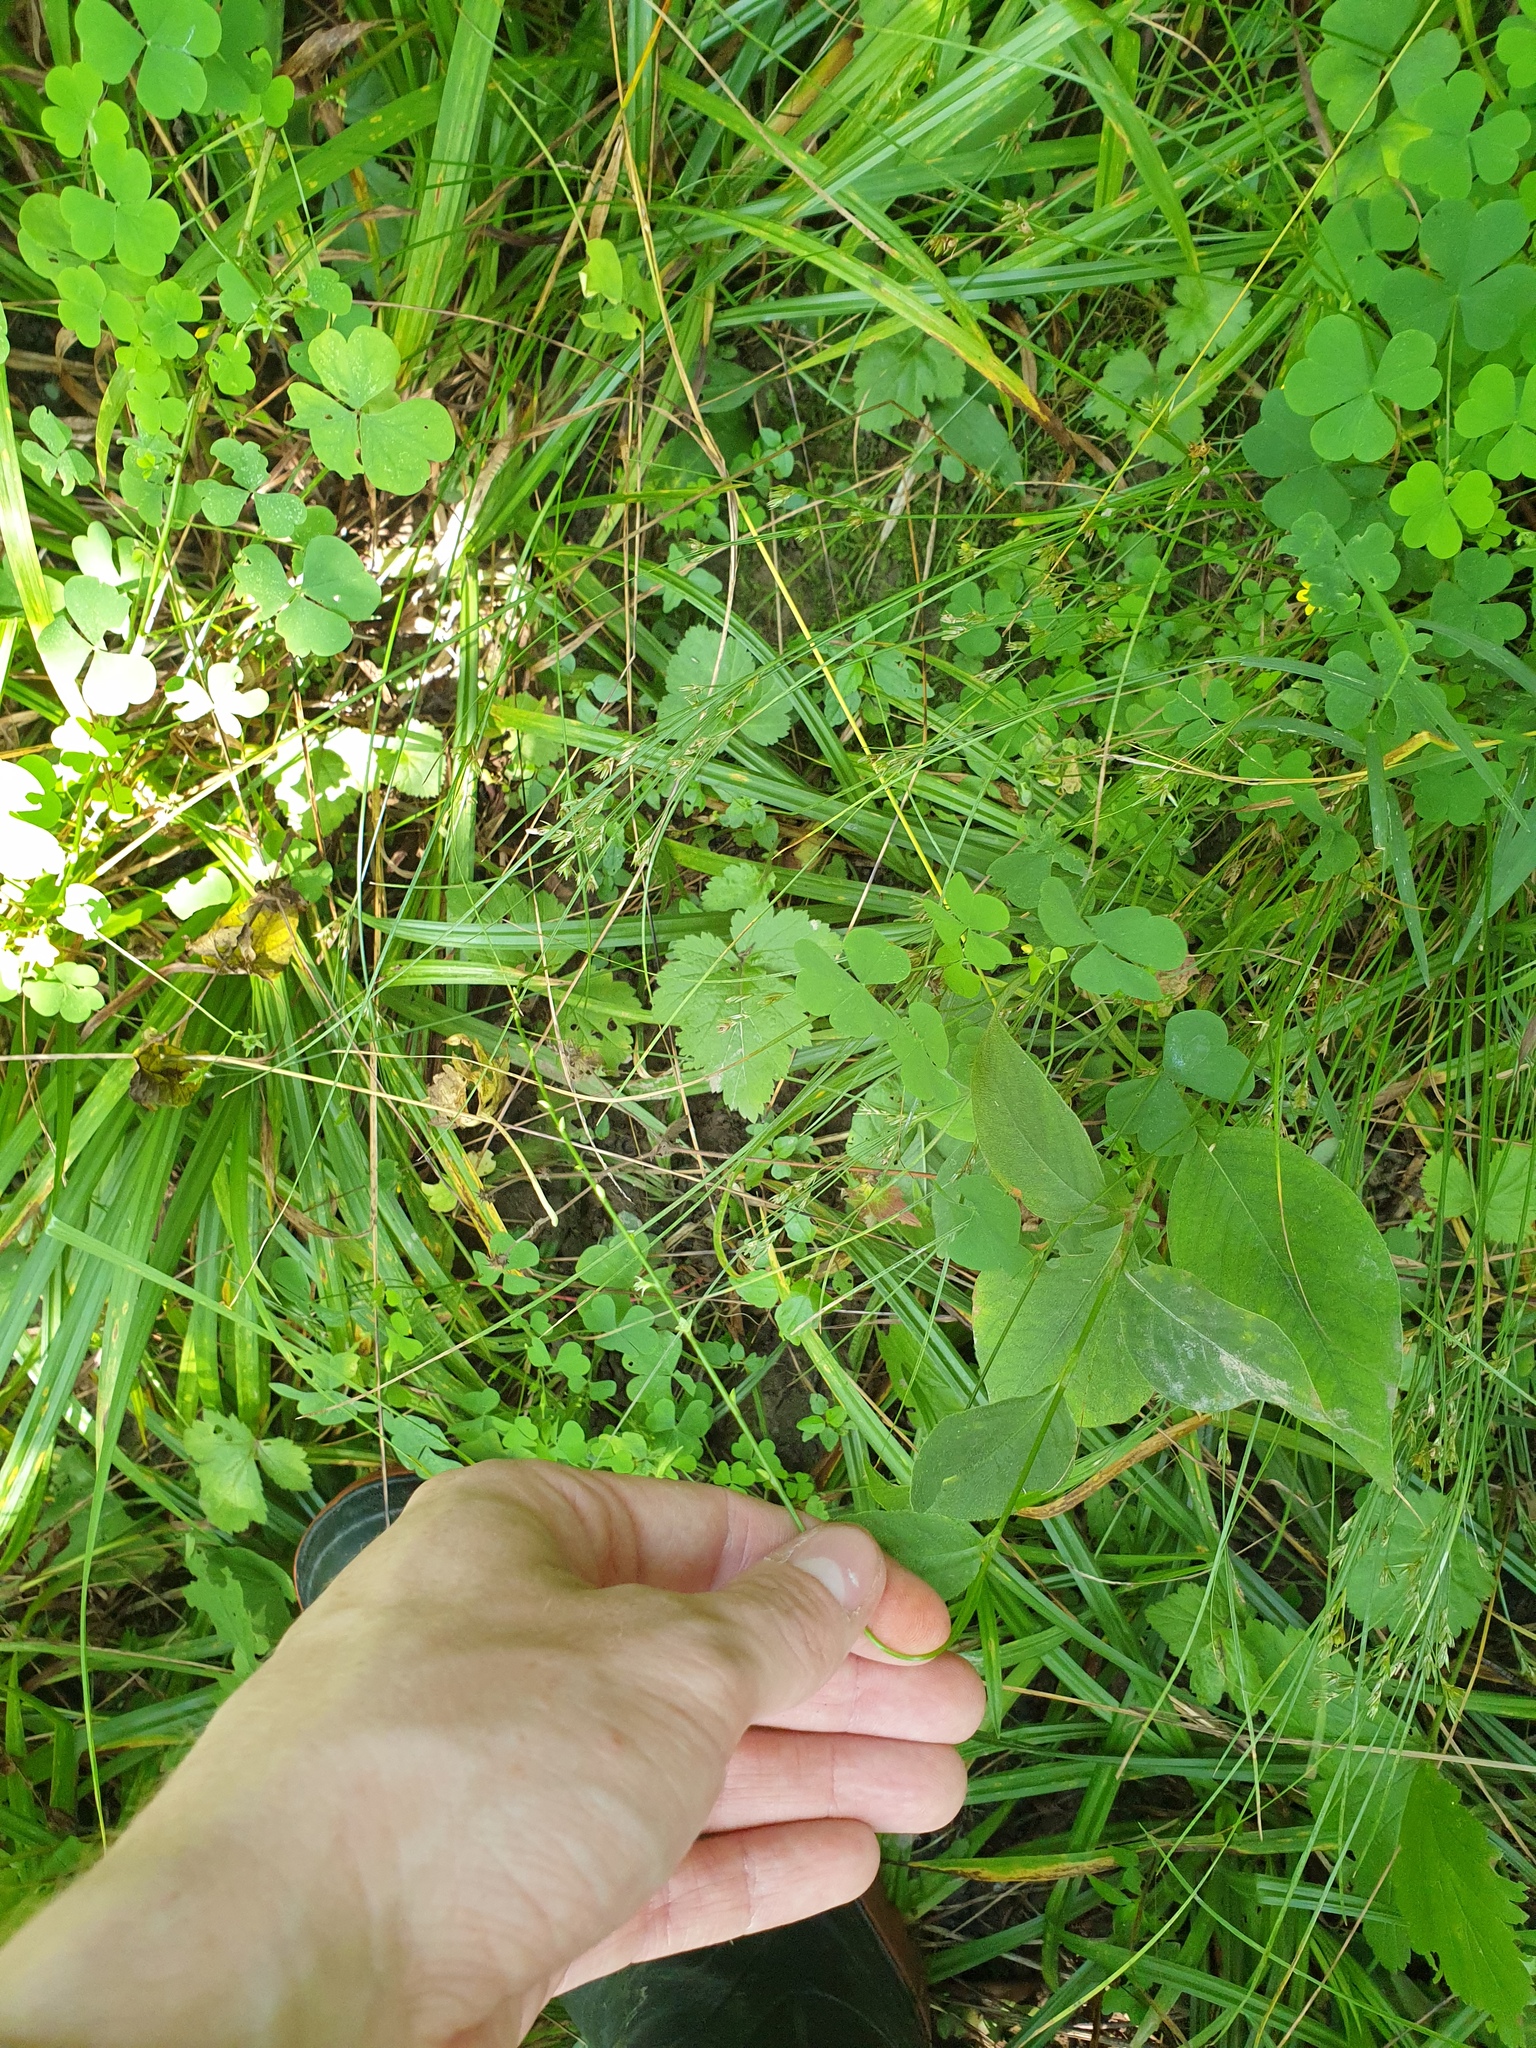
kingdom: Plantae
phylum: Tracheophyta
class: Magnoliopsida
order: Caryophyllales
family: Polygonaceae
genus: Persicaria
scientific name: Persicaria virginiana
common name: Jumpseed
